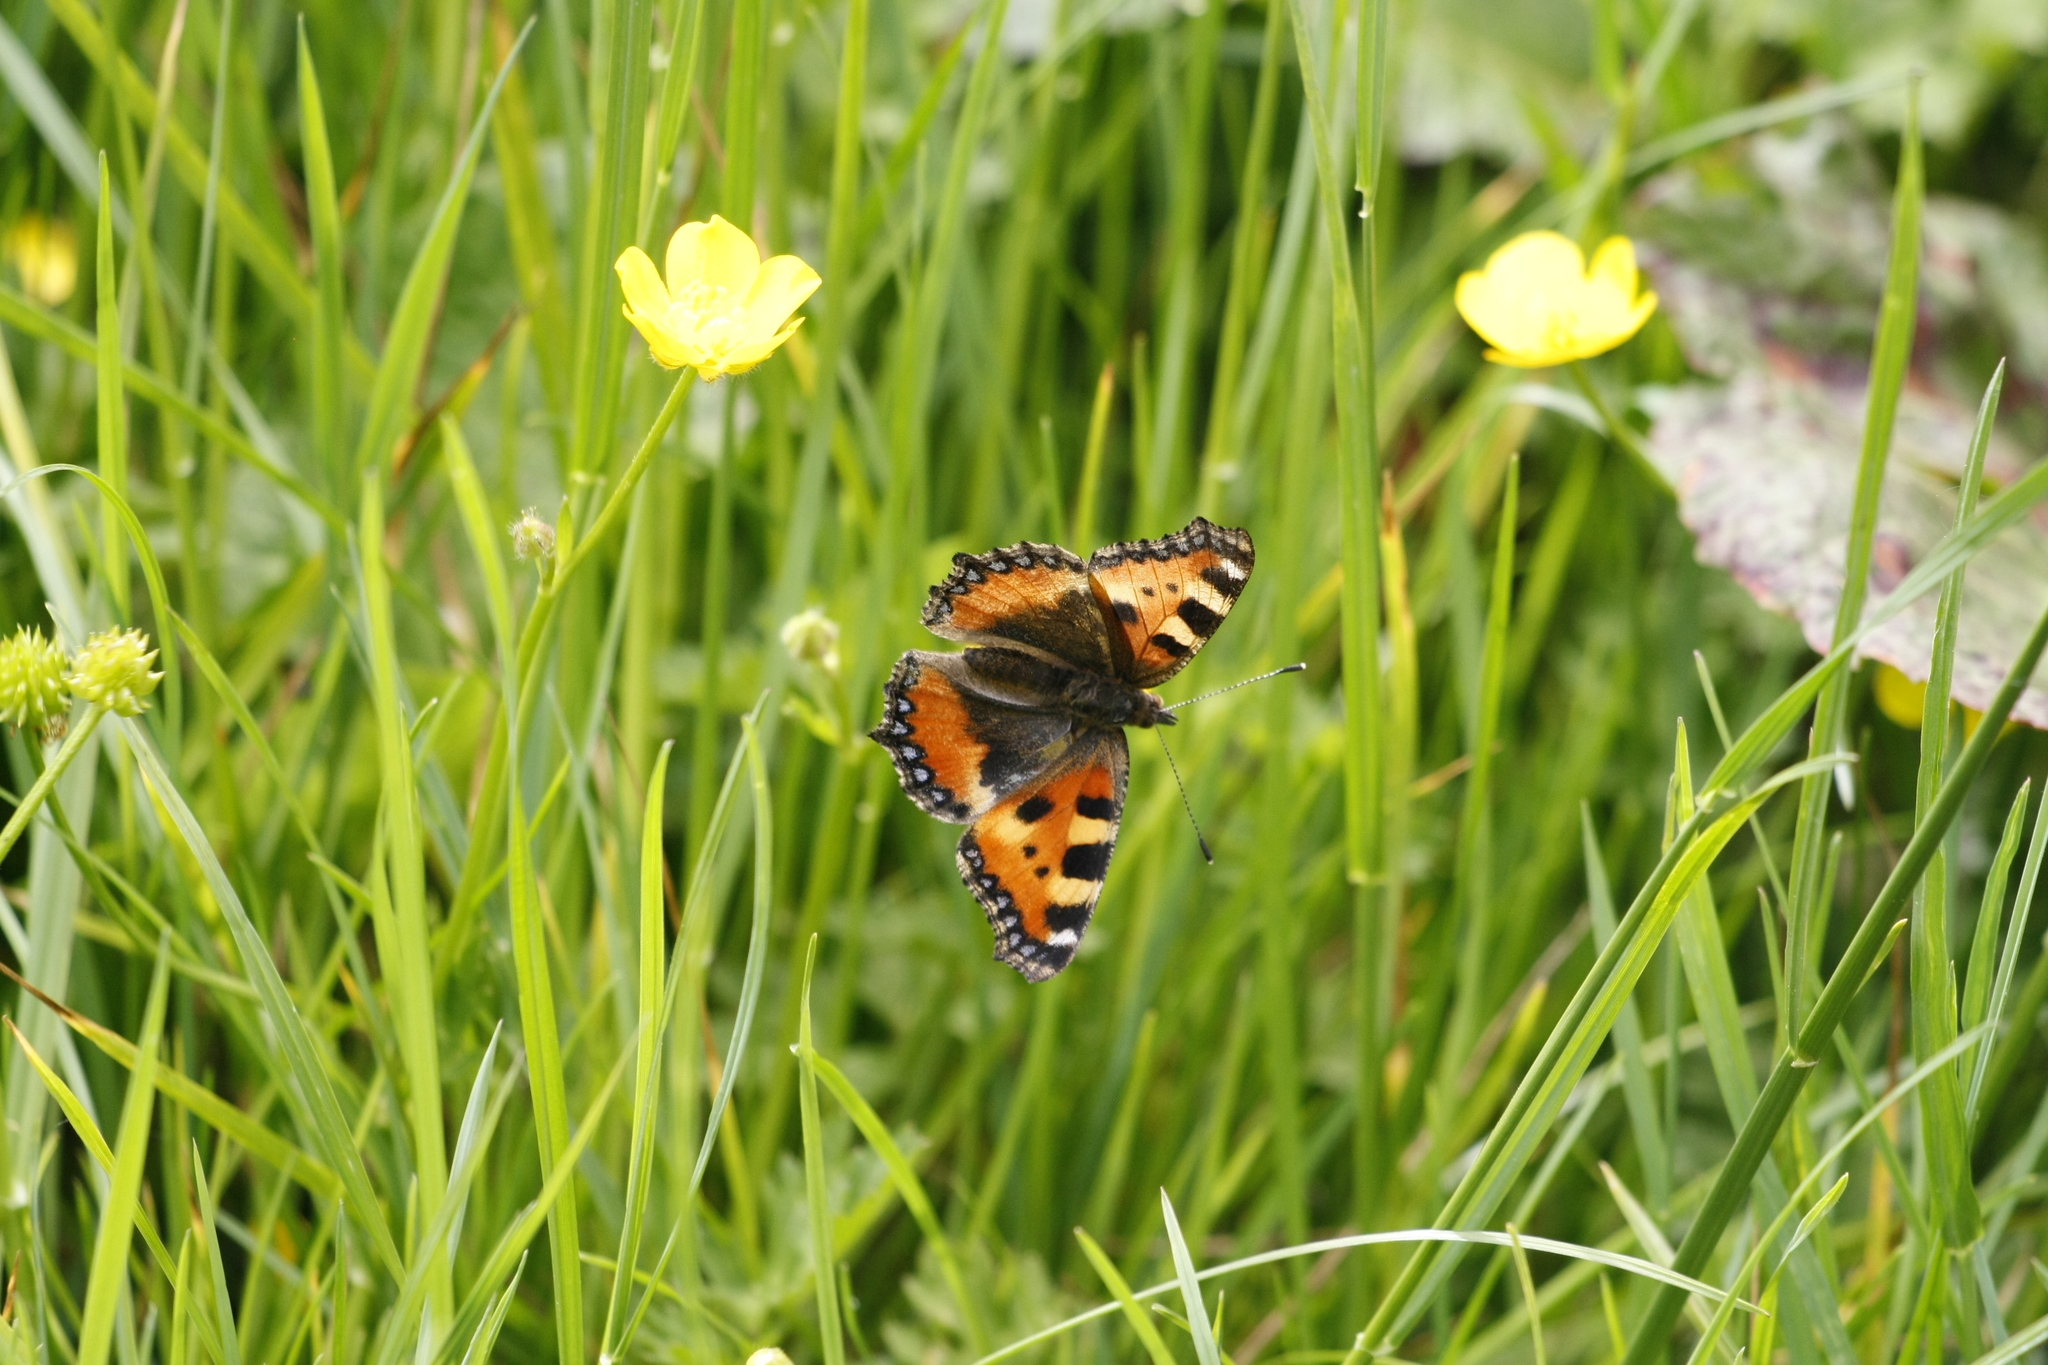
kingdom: Animalia
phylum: Arthropoda
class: Insecta
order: Lepidoptera
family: Nymphalidae
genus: Aglais
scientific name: Aglais urticae
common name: Small tortoiseshell
